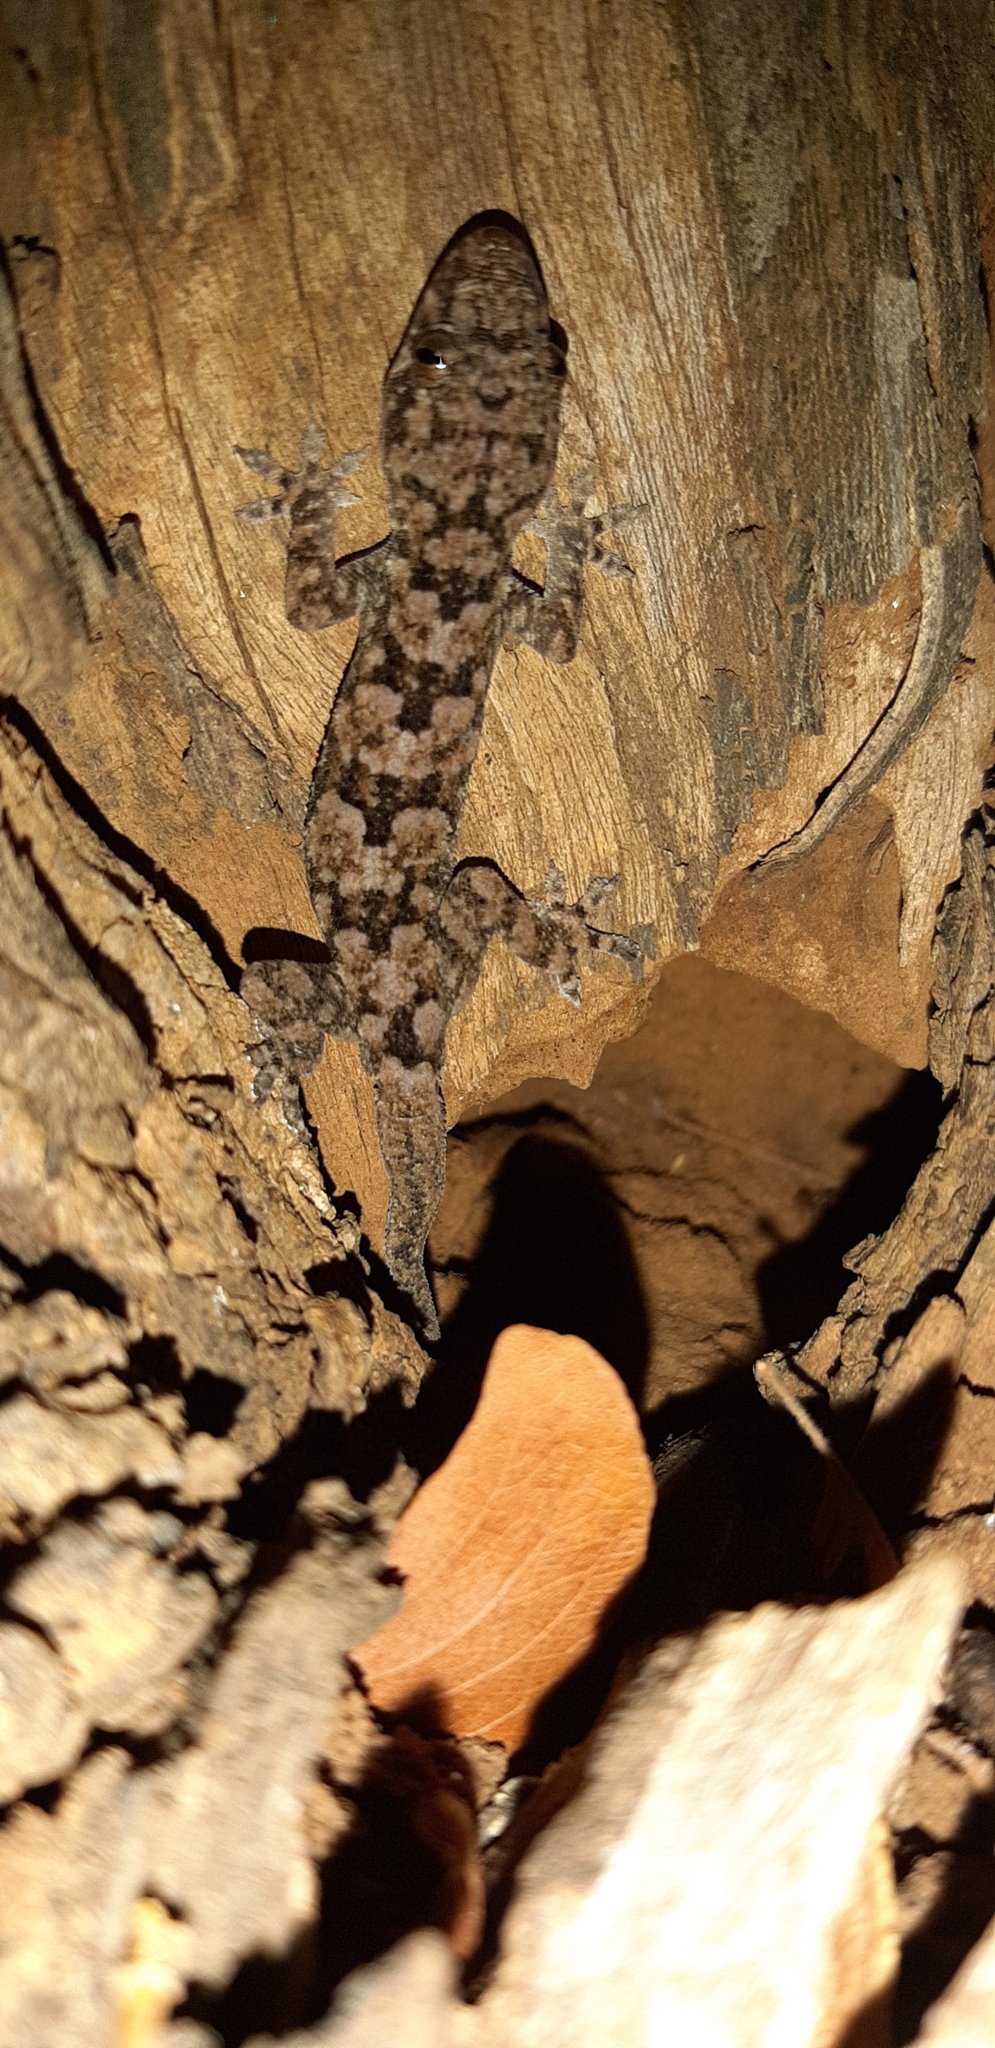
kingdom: Animalia
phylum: Chordata
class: Squamata
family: Gekkonidae
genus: Hemidactylus
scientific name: Hemidactylus mabouia
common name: House gecko
